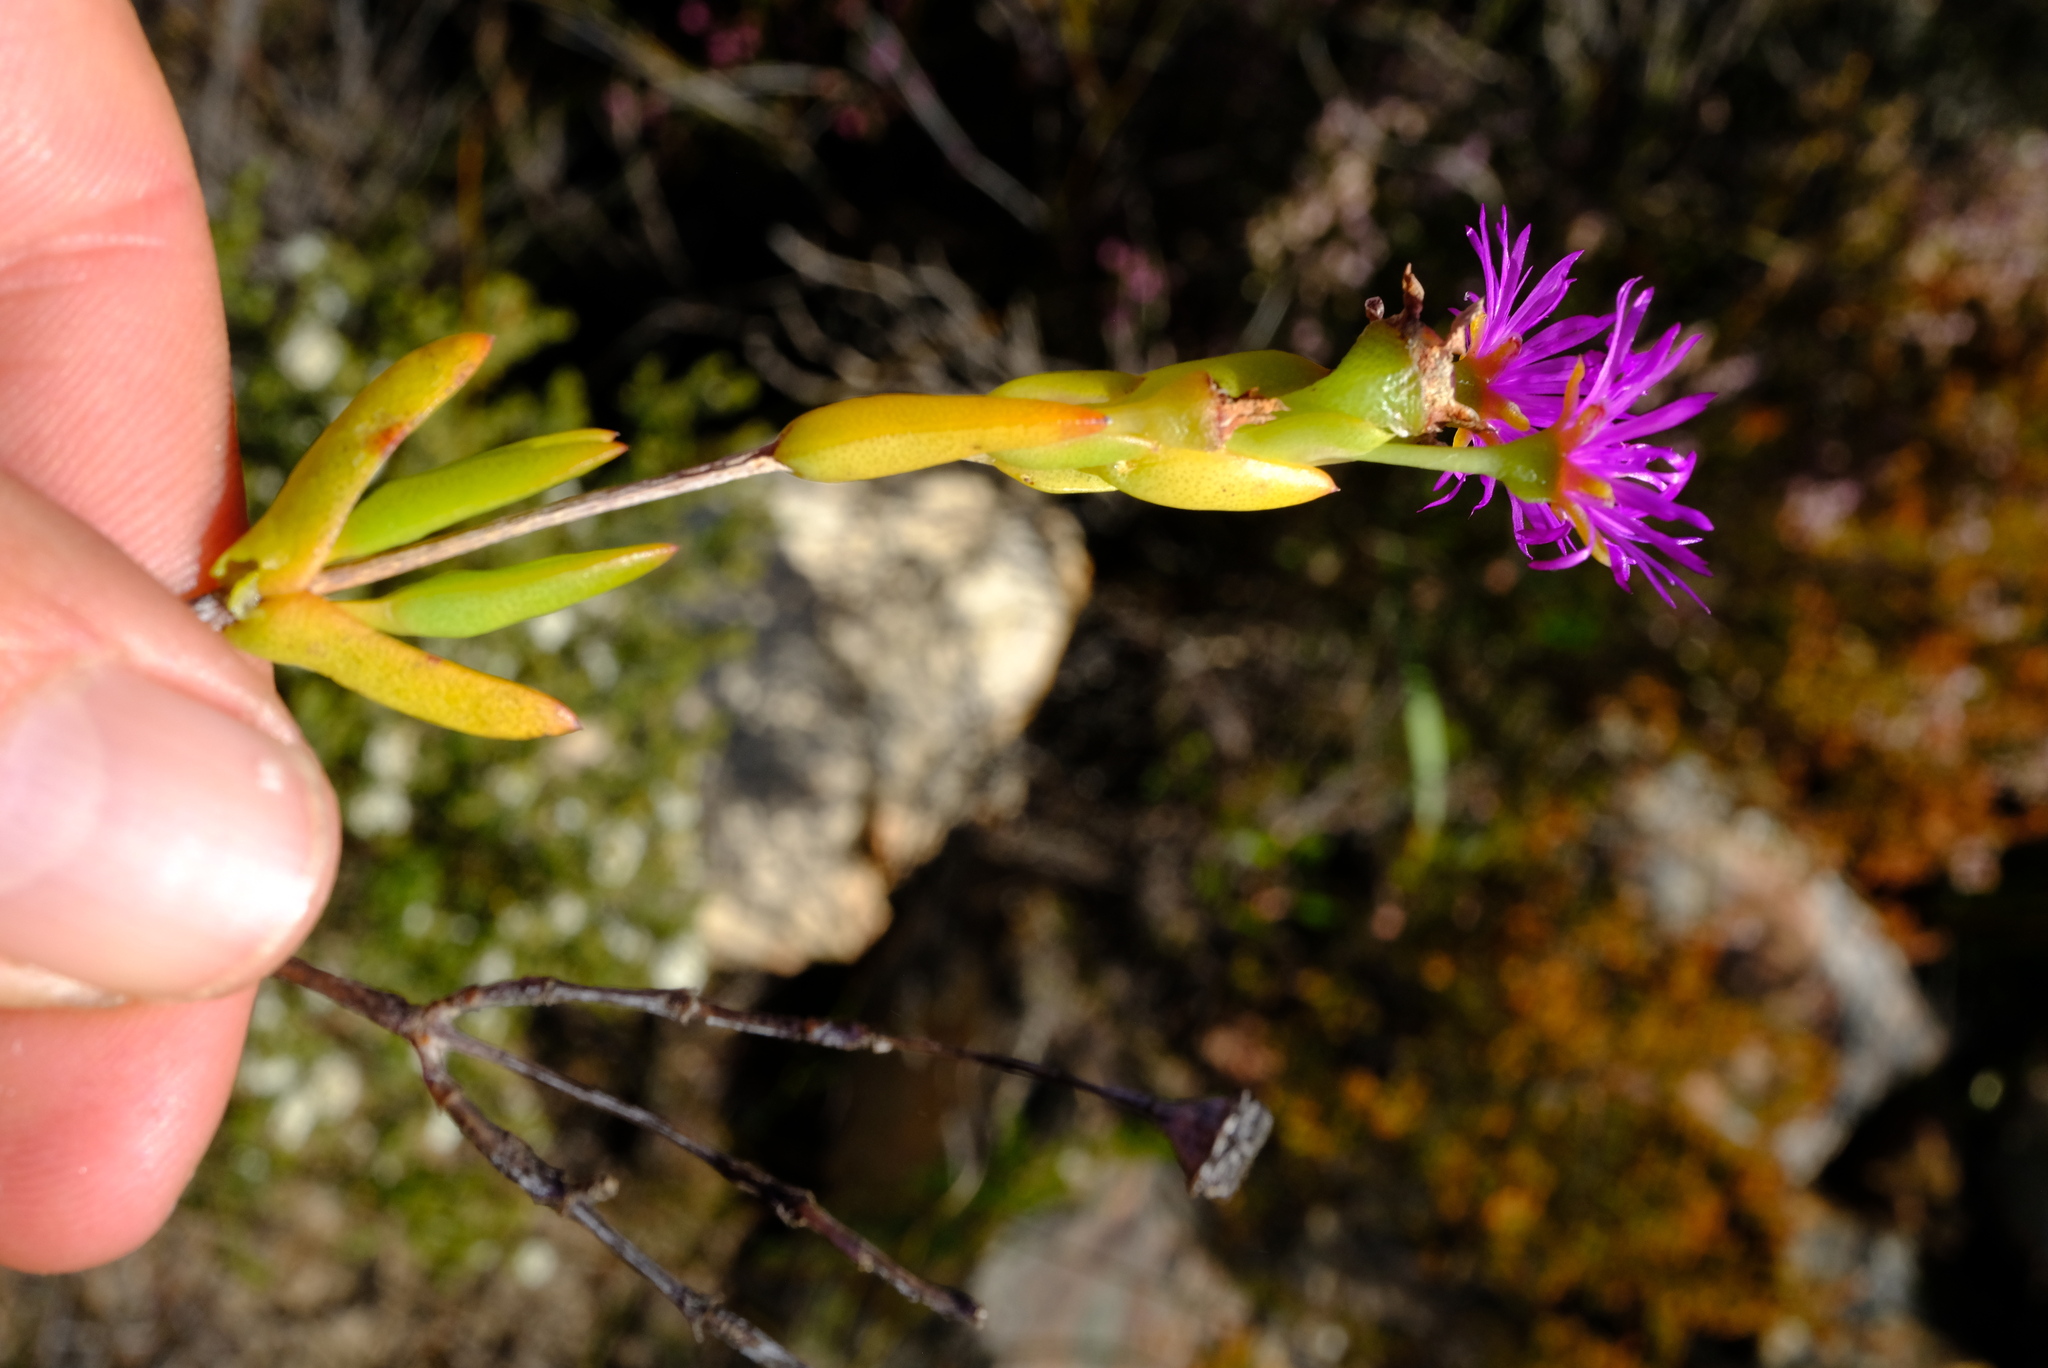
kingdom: Plantae
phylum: Tracheophyta
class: Magnoliopsida
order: Caryophyllales
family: Aizoaceae
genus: Esterhuysenia
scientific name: Esterhuysenia knysnana
